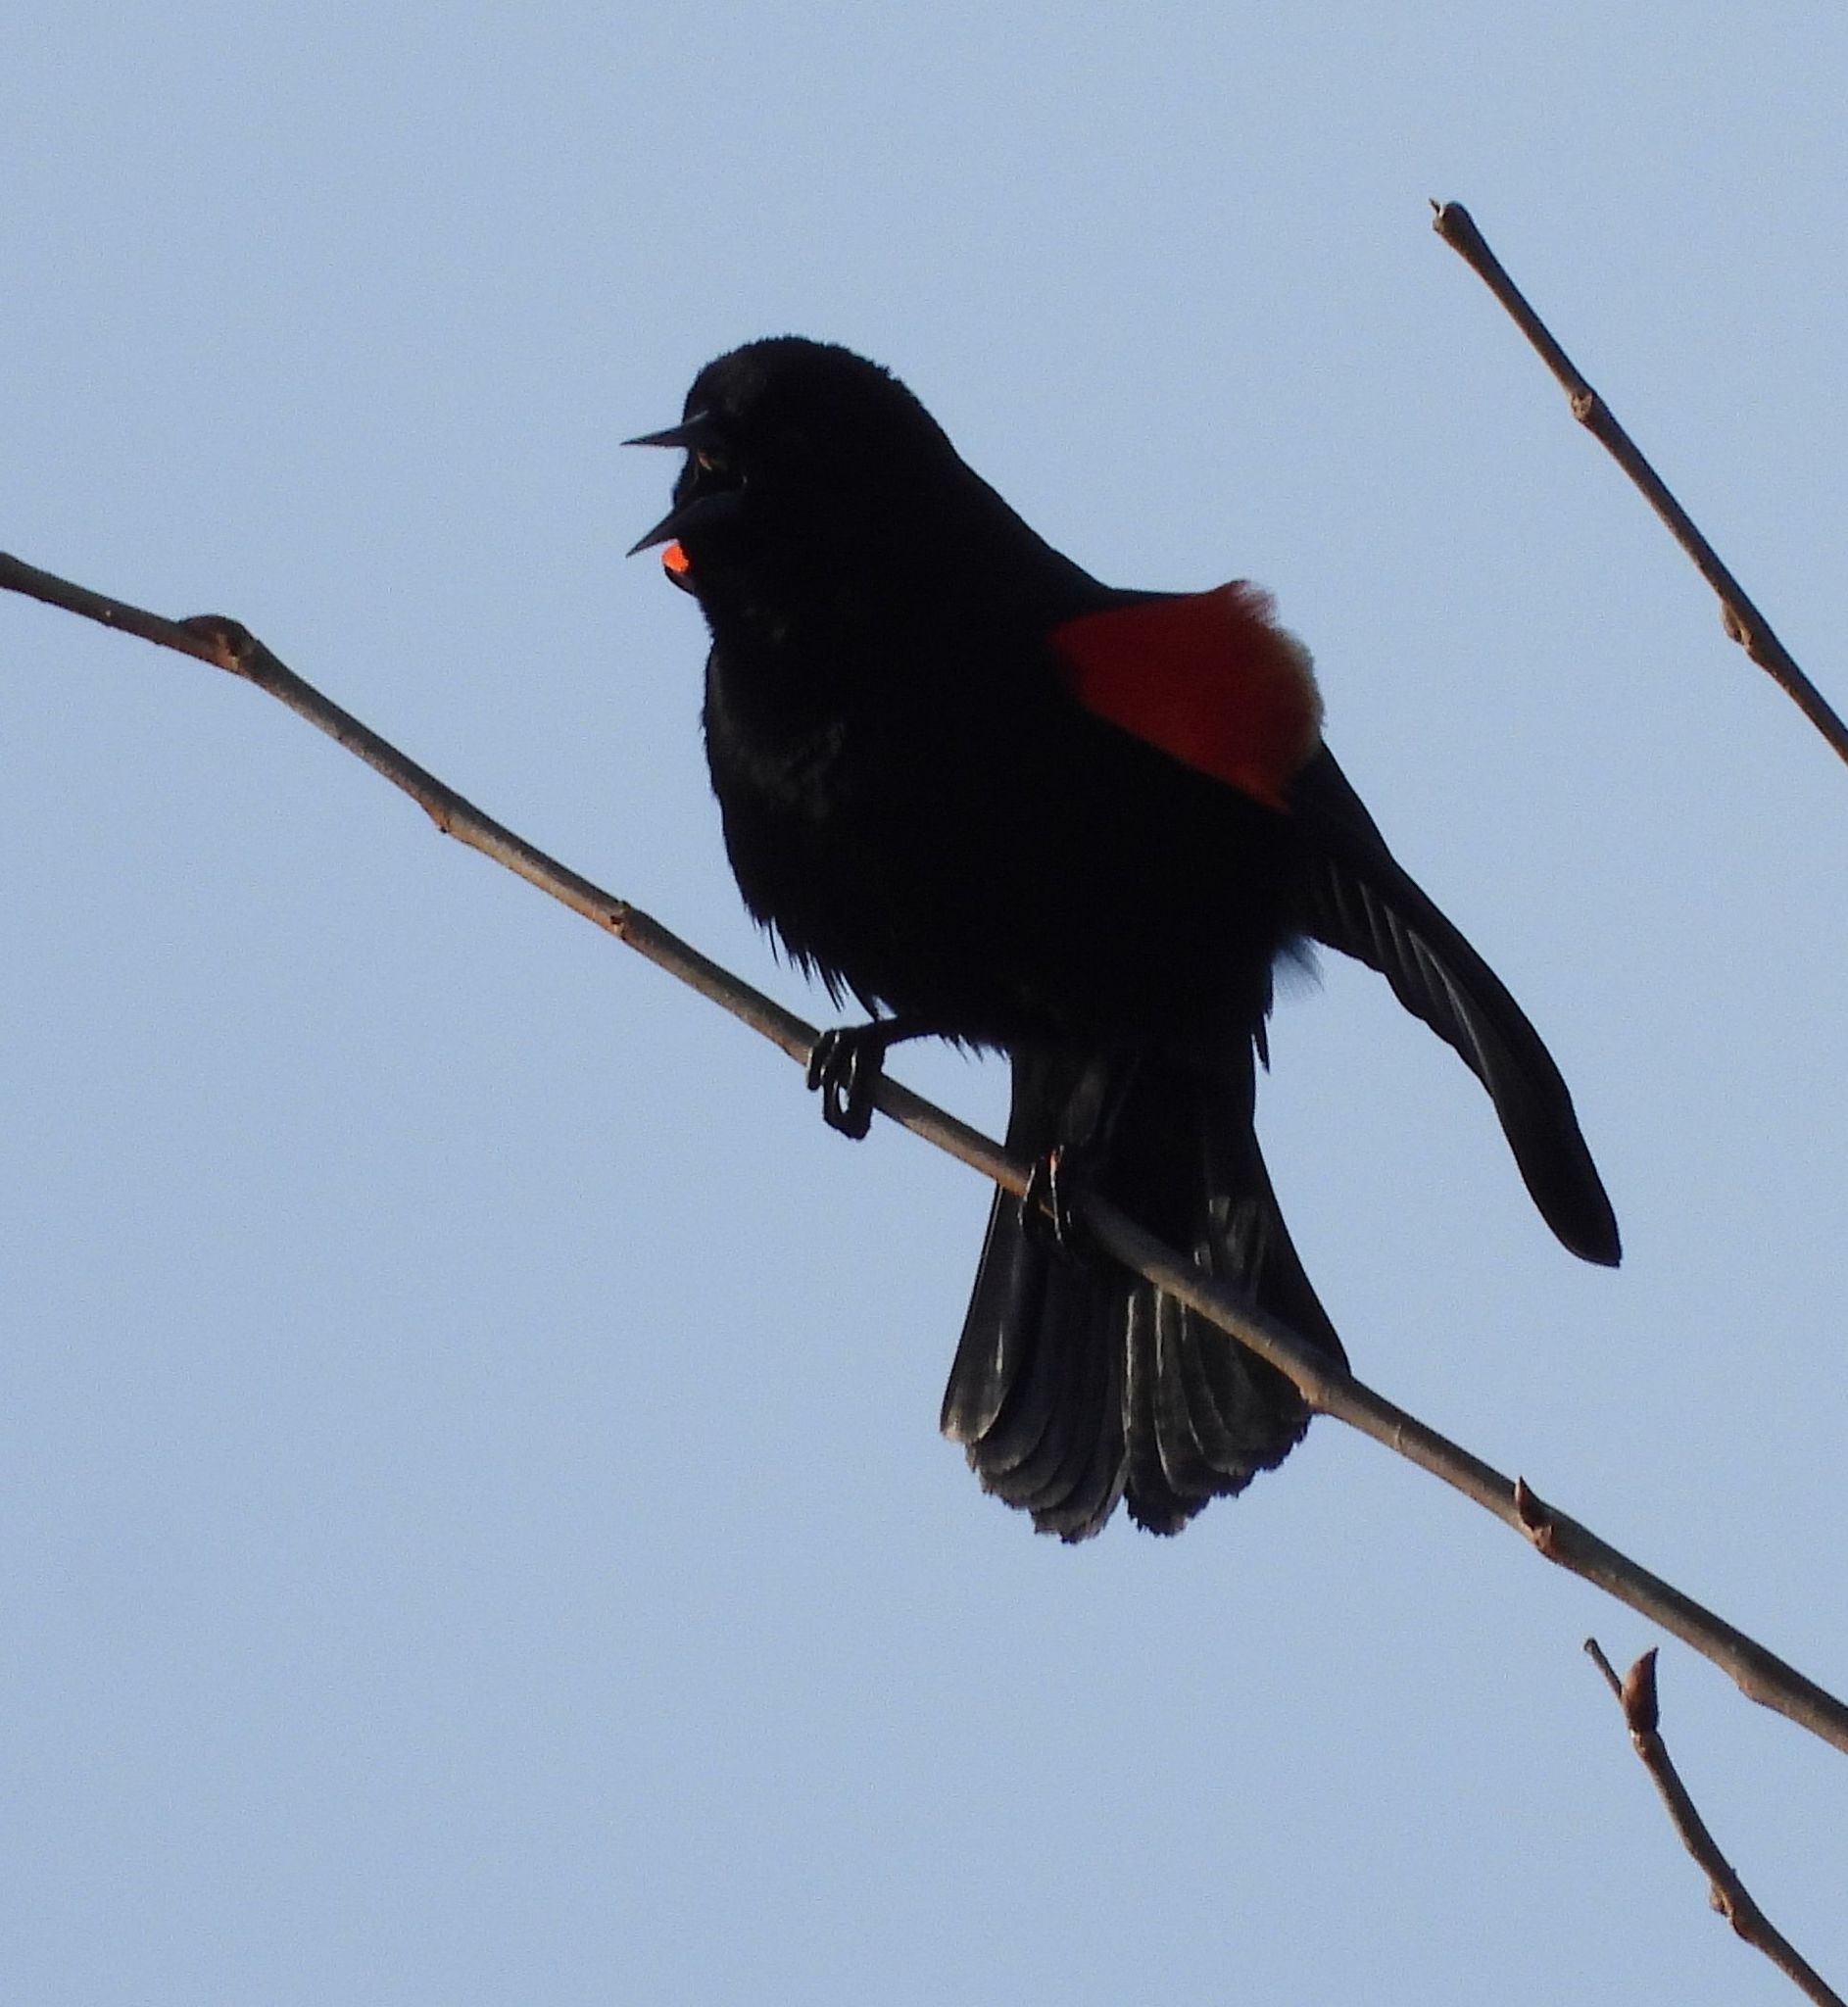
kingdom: Animalia
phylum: Chordata
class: Aves
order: Passeriformes
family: Icteridae
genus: Agelaius
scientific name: Agelaius phoeniceus
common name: Red-winged blackbird
